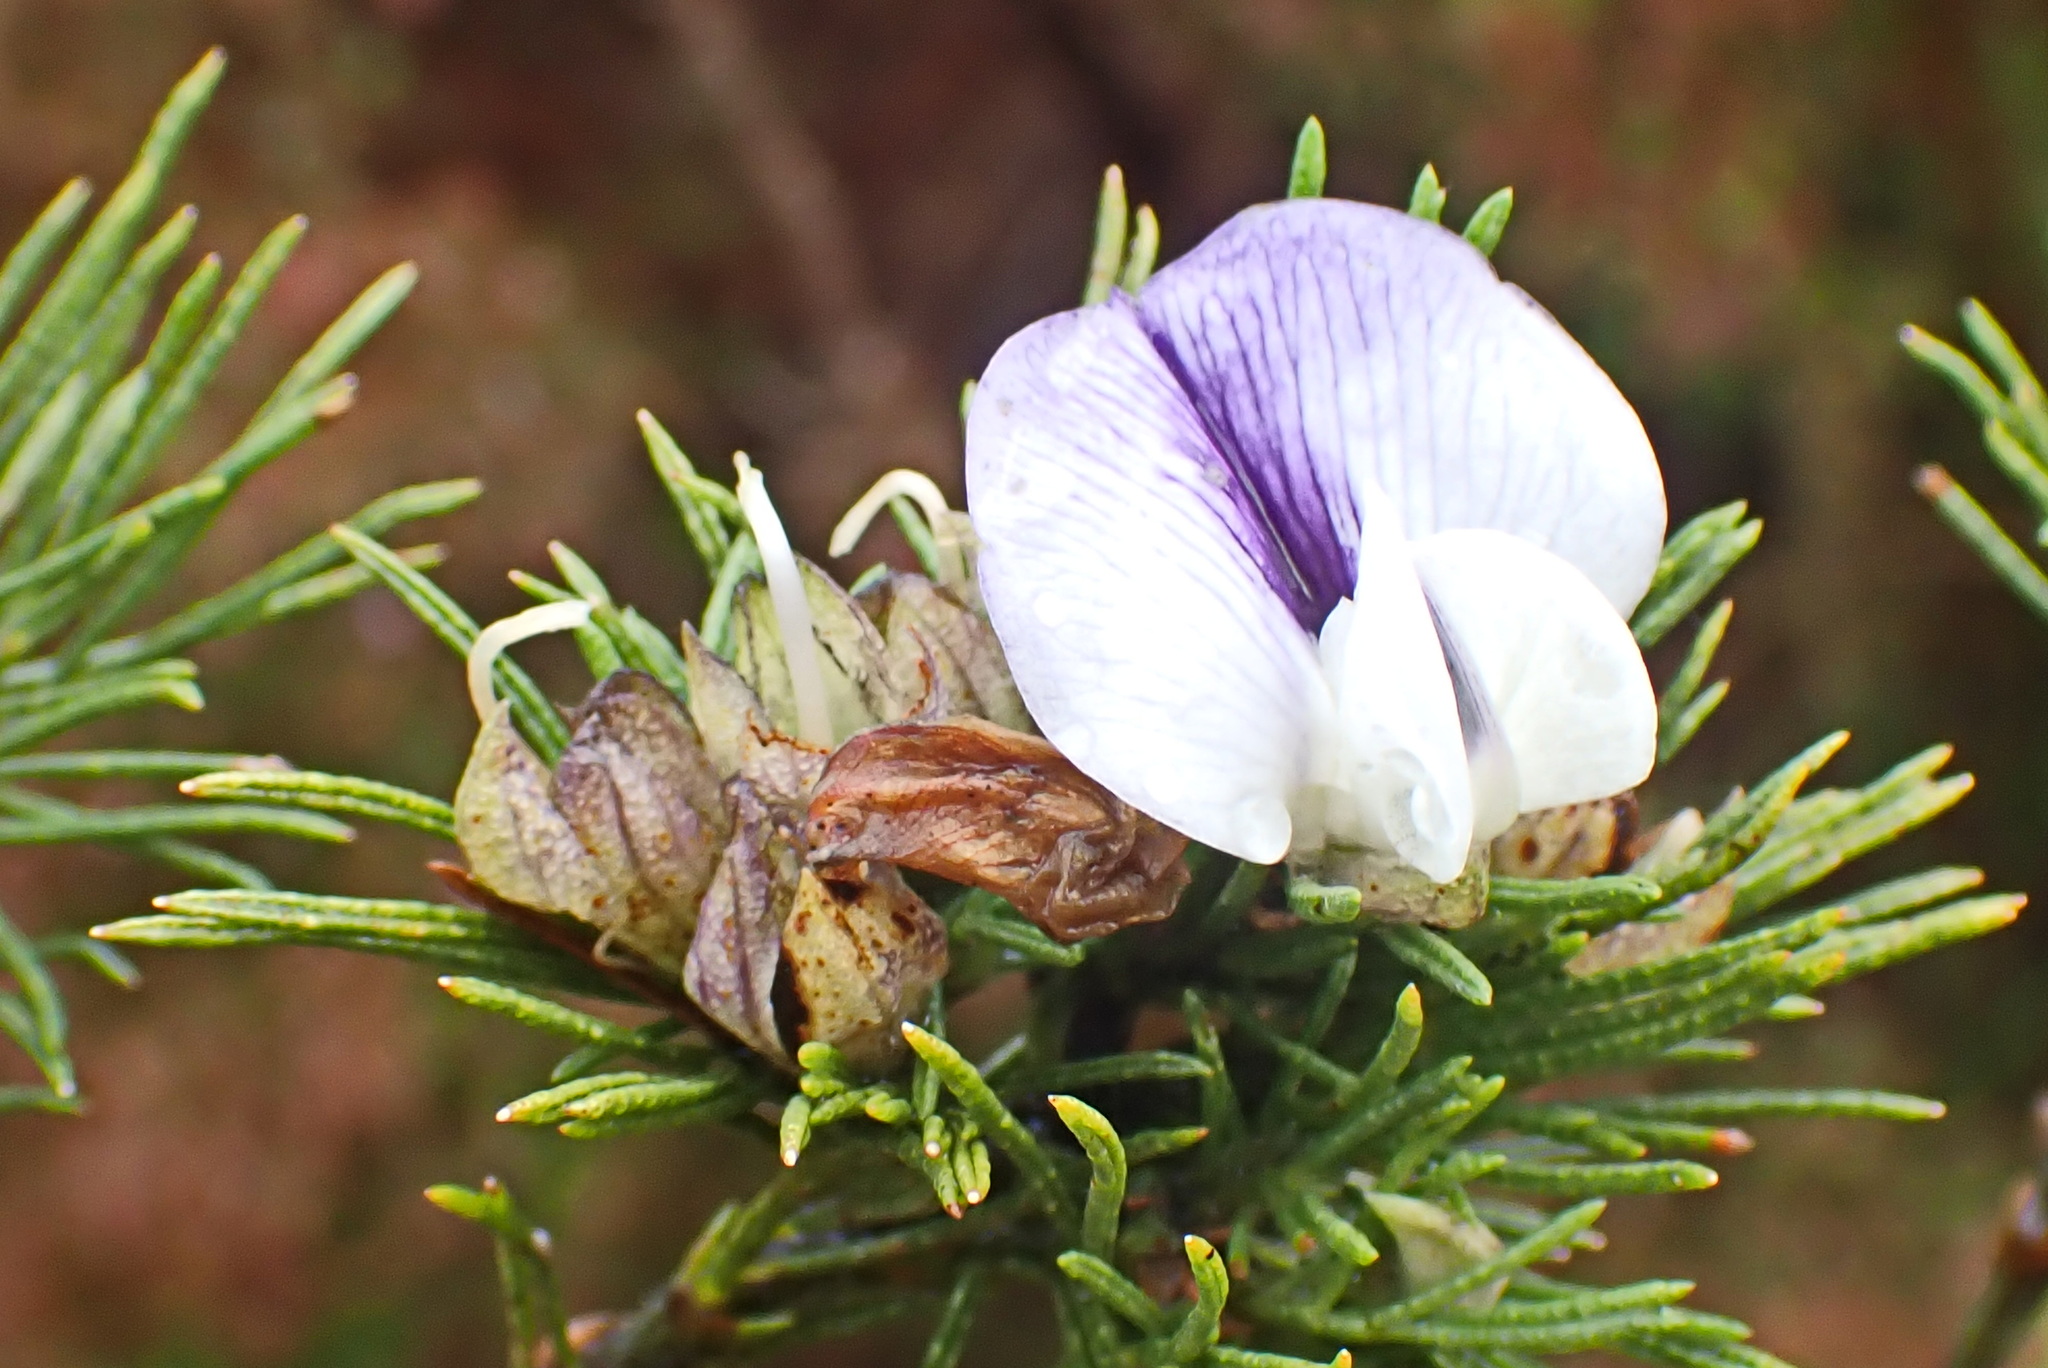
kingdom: Plantae
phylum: Tracheophyta
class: Magnoliopsida
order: Fabales
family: Fabaceae
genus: Psoralea
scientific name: Psoralea floccosa
